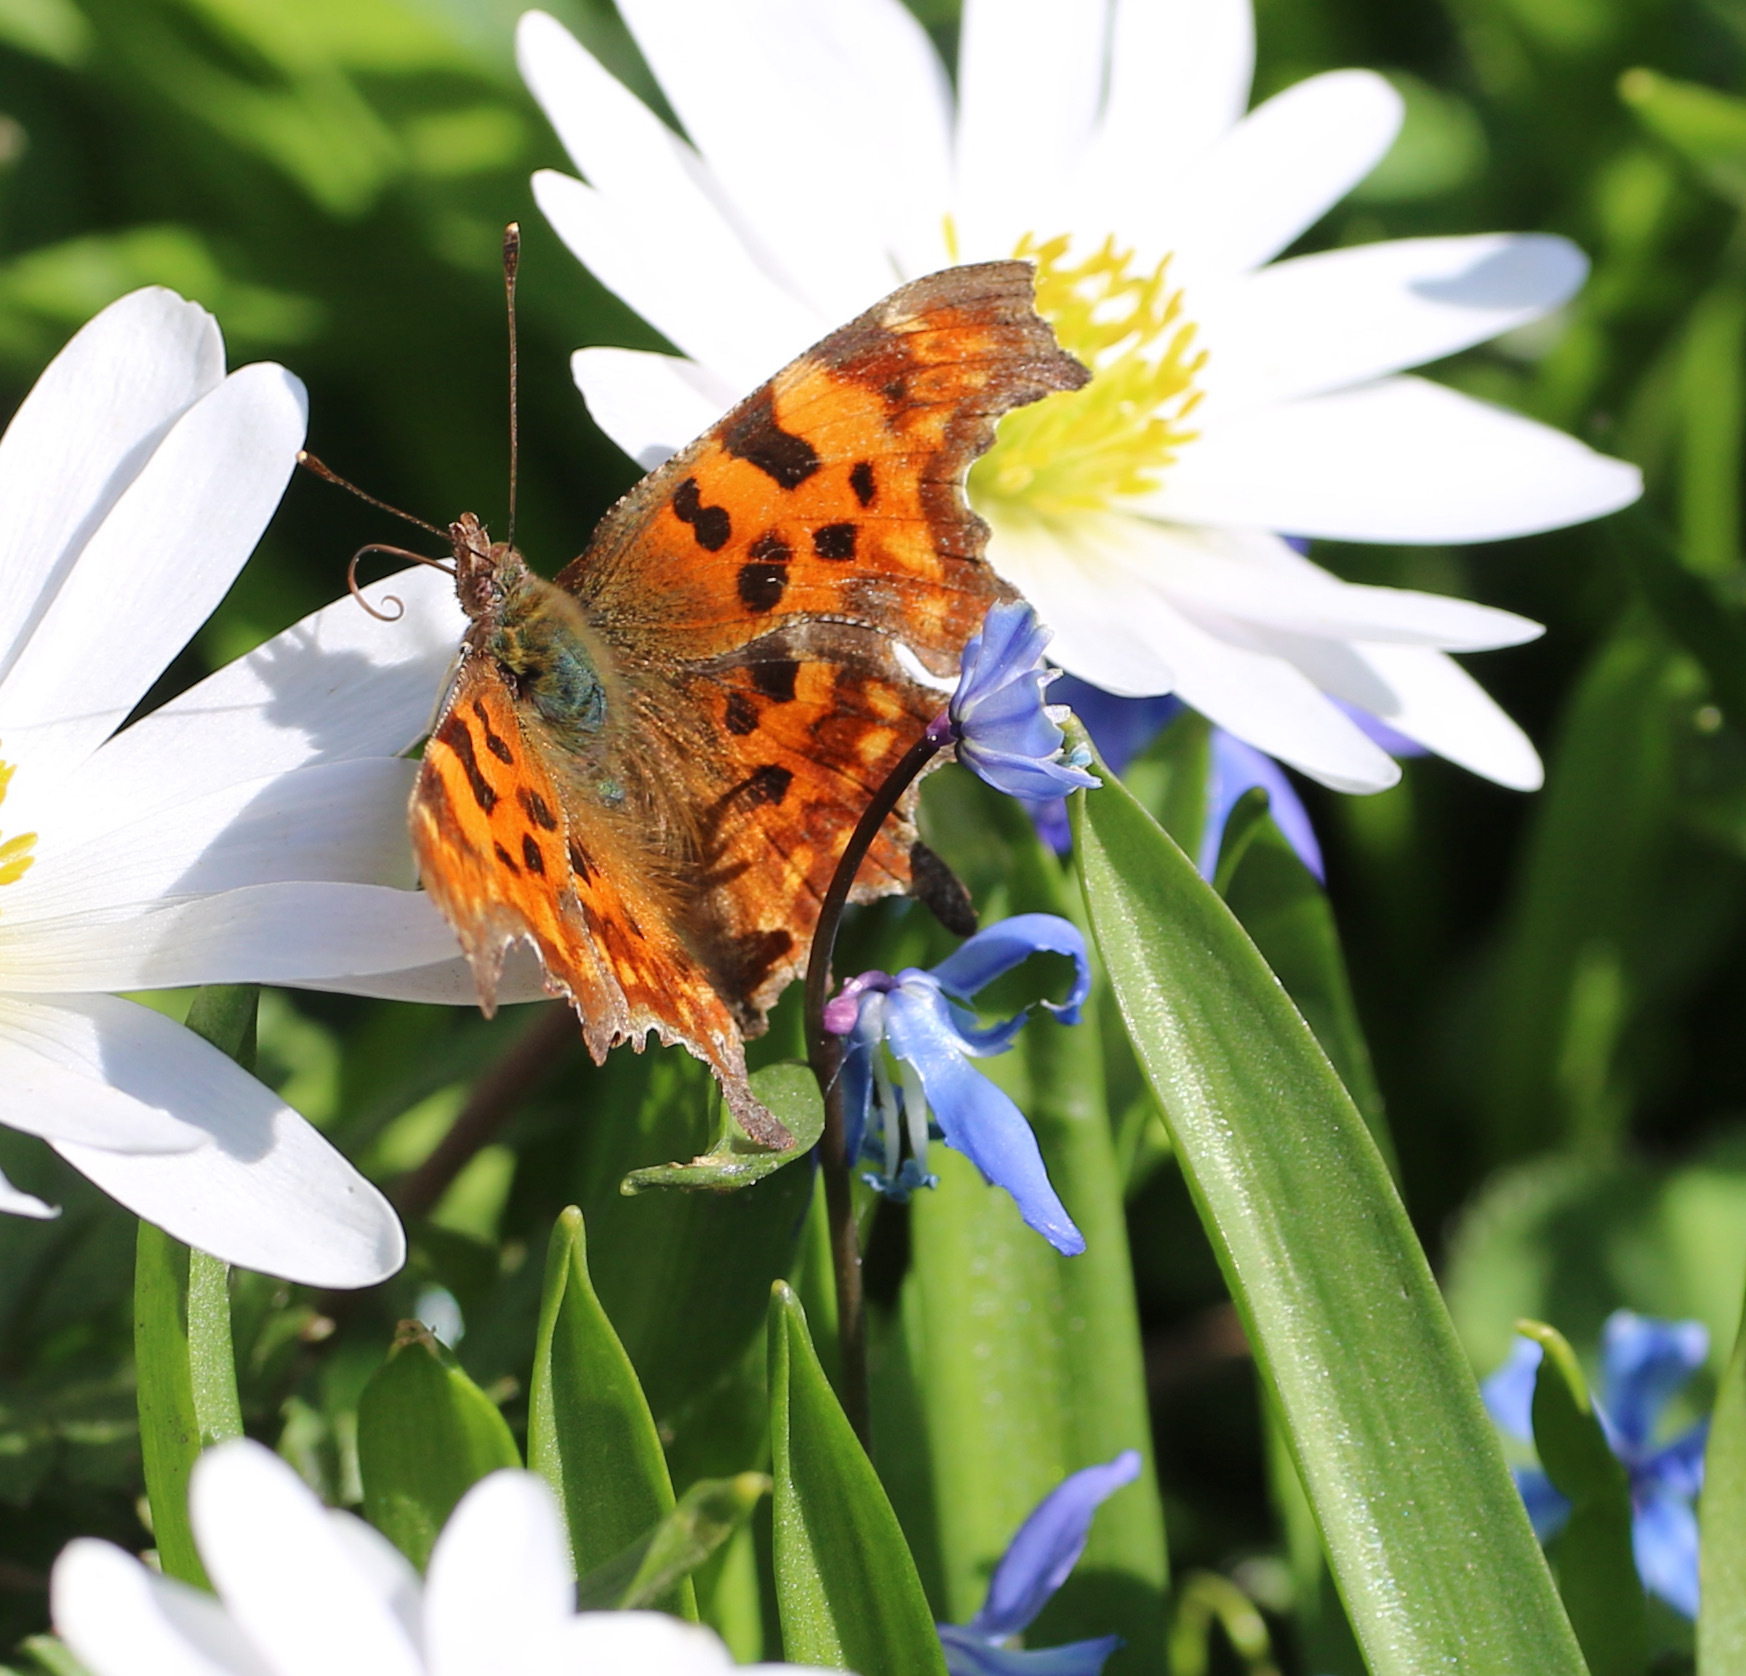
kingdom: Animalia
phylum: Arthropoda
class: Insecta
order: Lepidoptera
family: Nymphalidae
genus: Polygonia
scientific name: Polygonia c-album
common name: Comma
